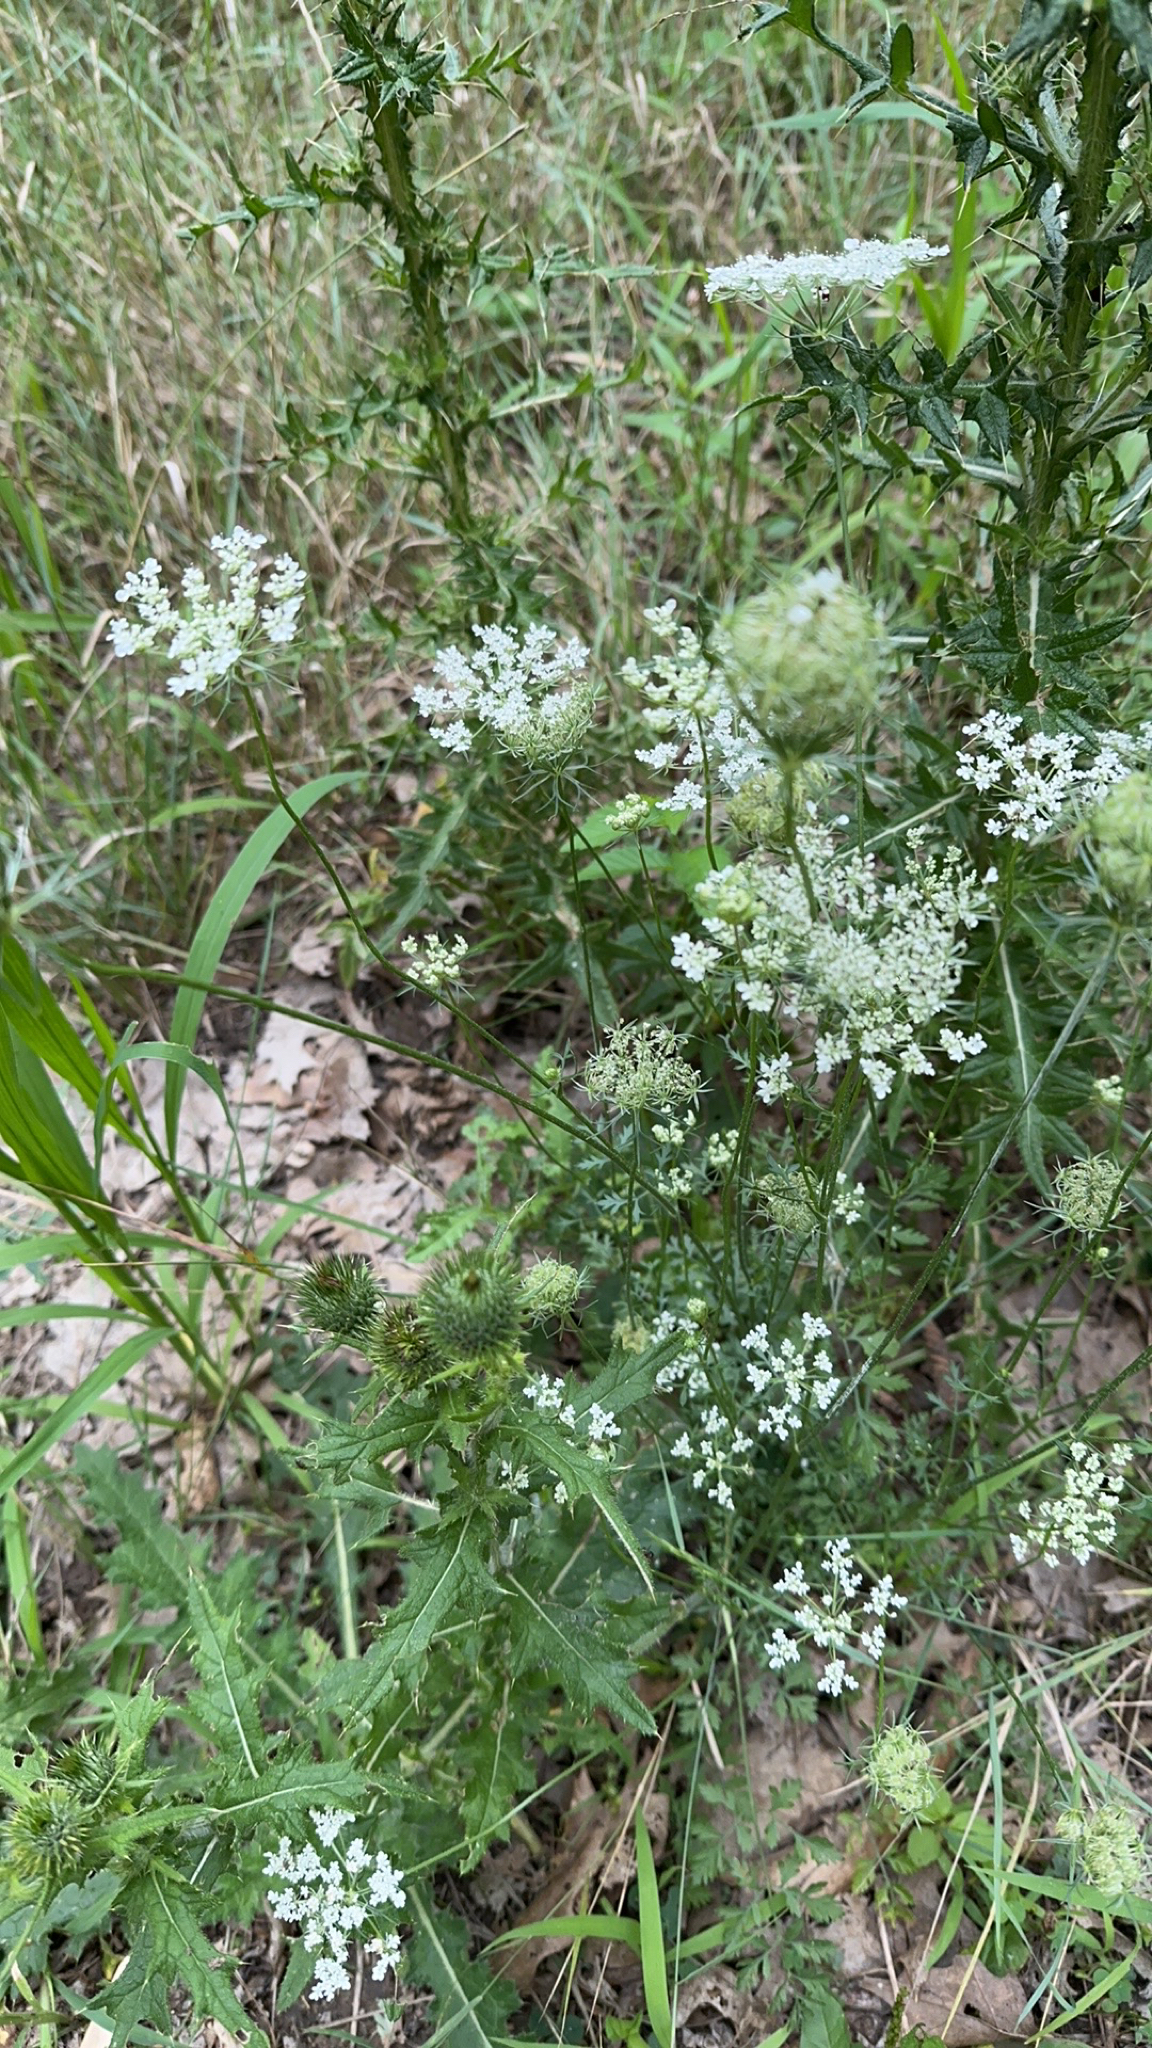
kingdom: Plantae
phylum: Tracheophyta
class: Magnoliopsida
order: Apiales
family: Apiaceae
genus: Daucus
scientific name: Daucus carota
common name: Wild carrot
